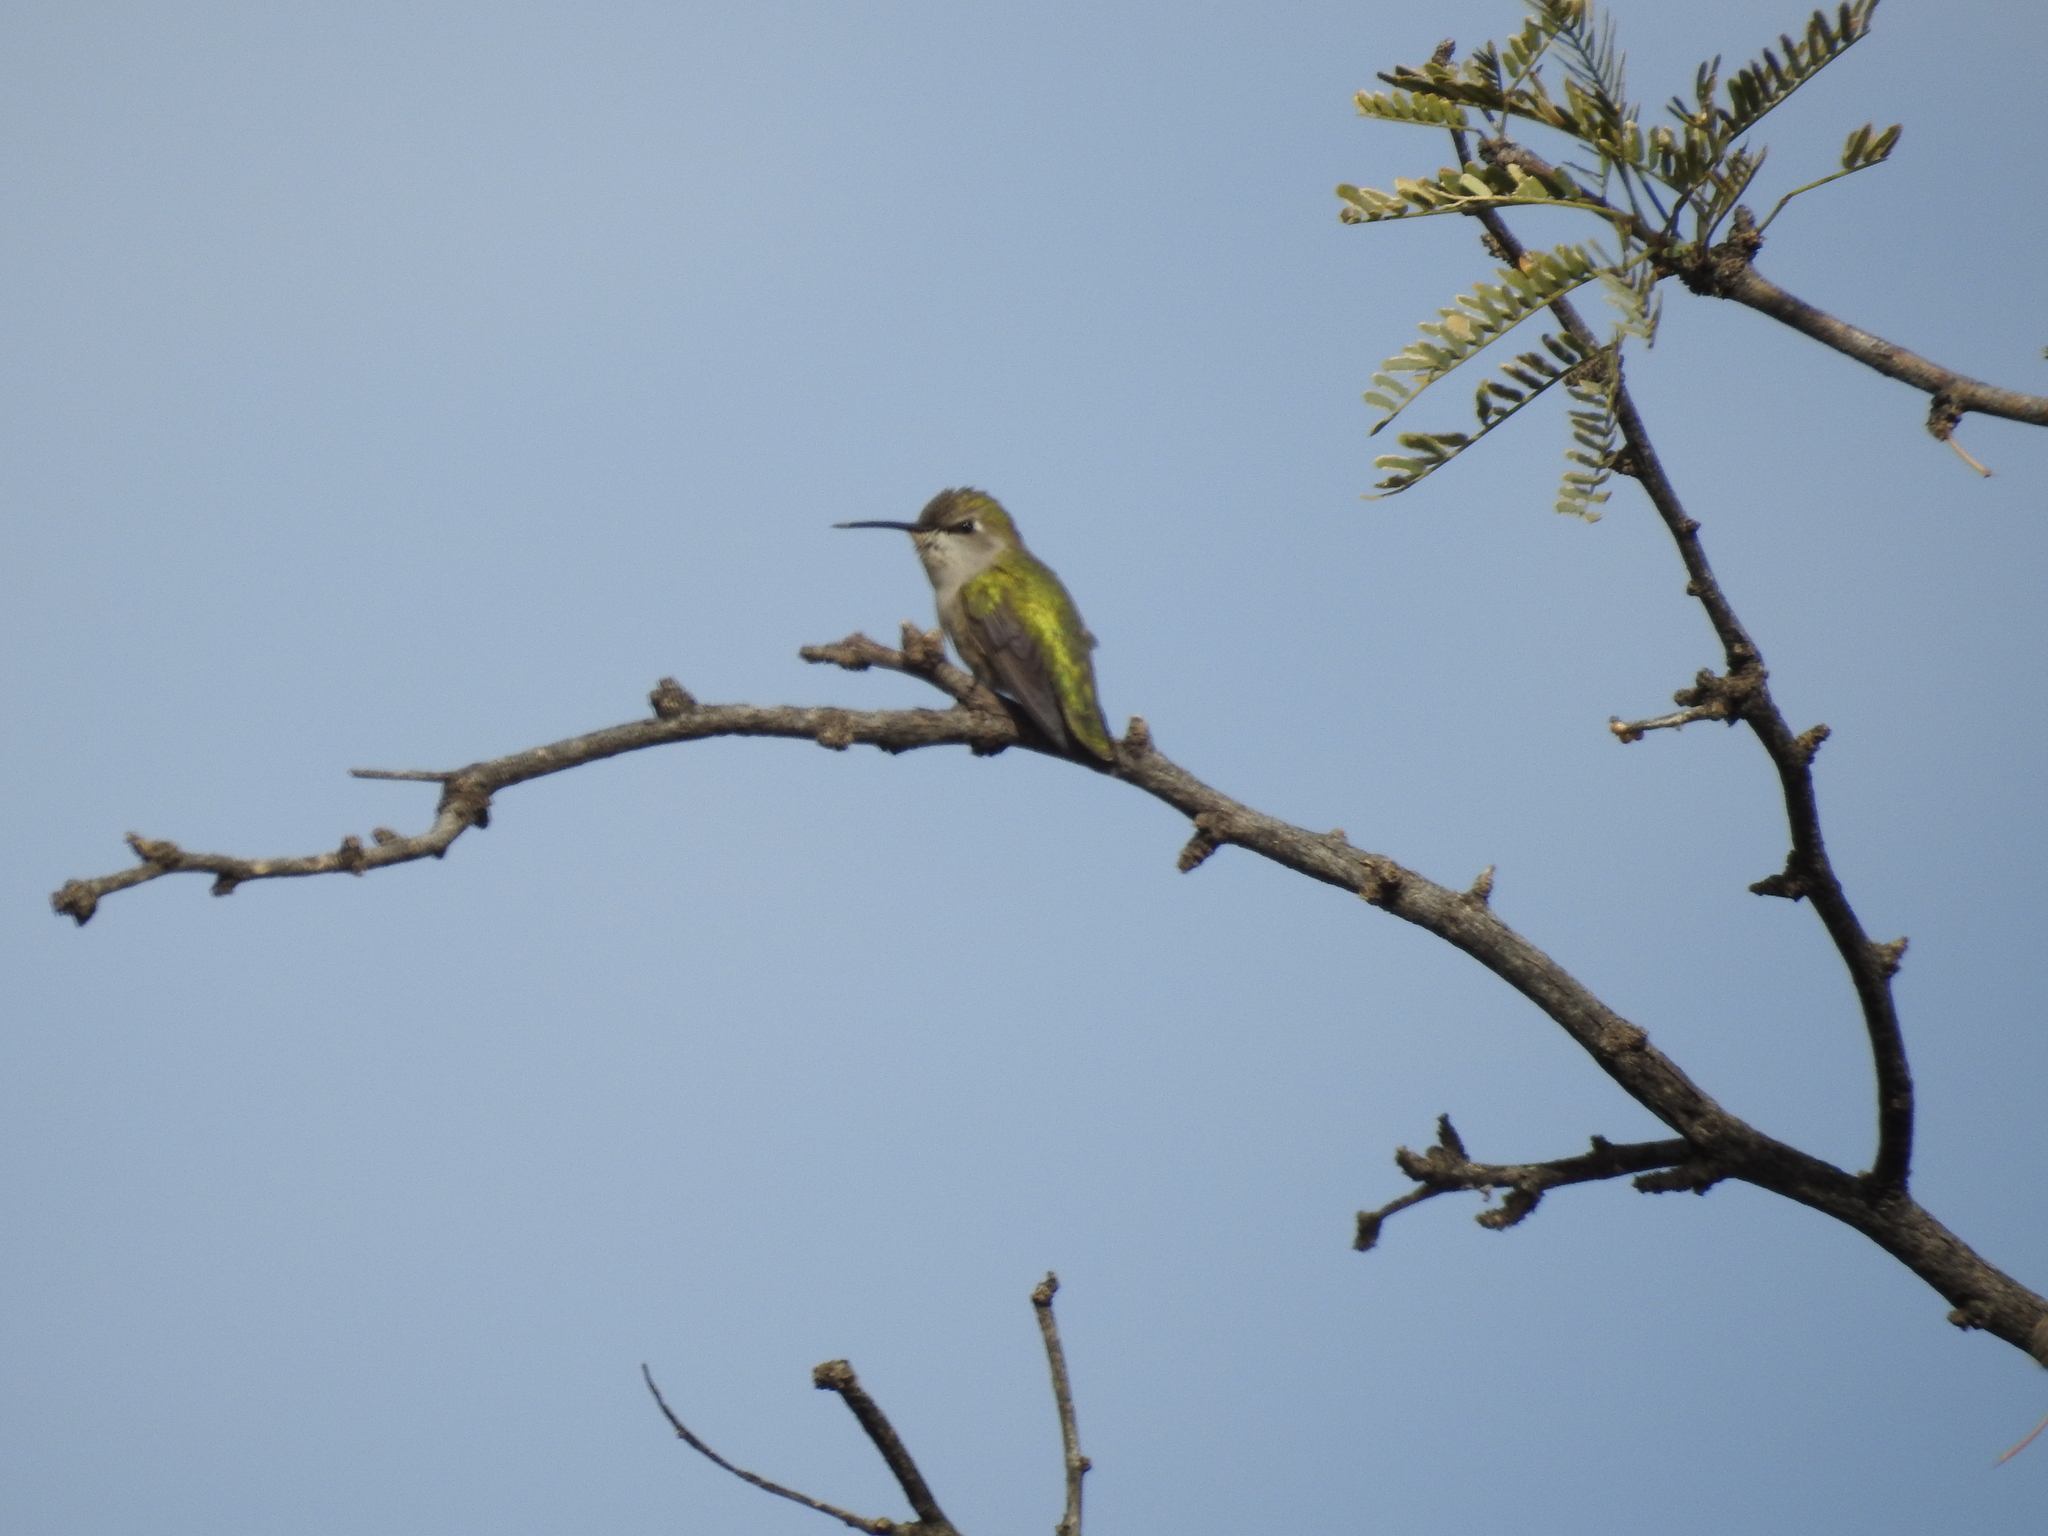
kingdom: Animalia
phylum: Chordata
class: Aves
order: Apodiformes
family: Trochilidae
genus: Calypte
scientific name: Calypte costae
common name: Costa's hummingbird
